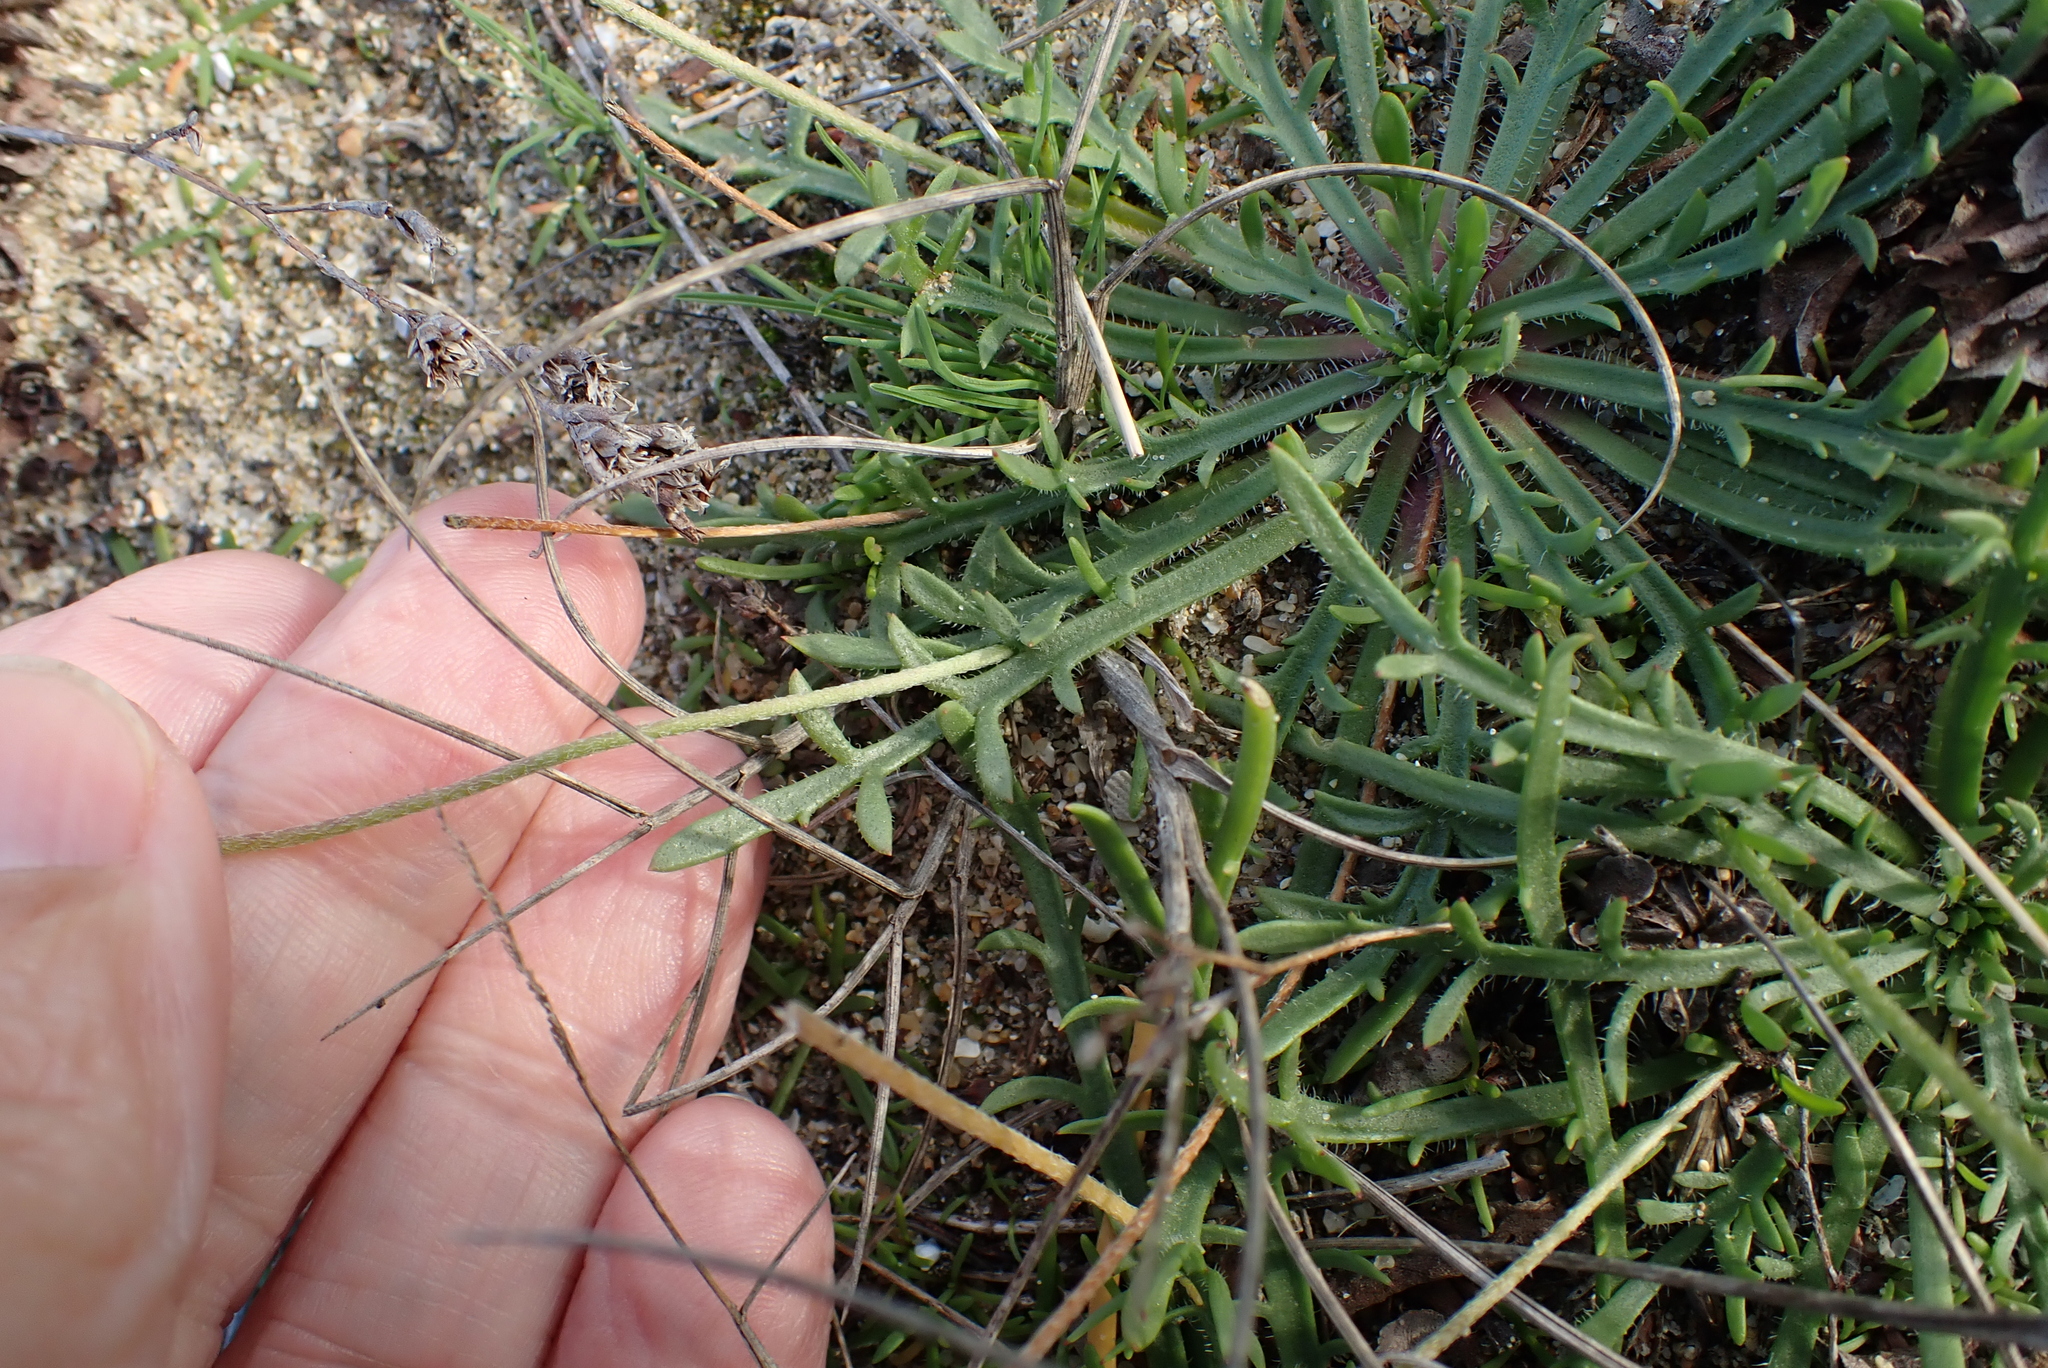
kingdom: Plantae
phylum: Tracheophyta
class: Magnoliopsida
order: Lamiales
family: Plantaginaceae
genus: Plantago
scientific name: Plantago coronopus
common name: Buck's-horn plantain
